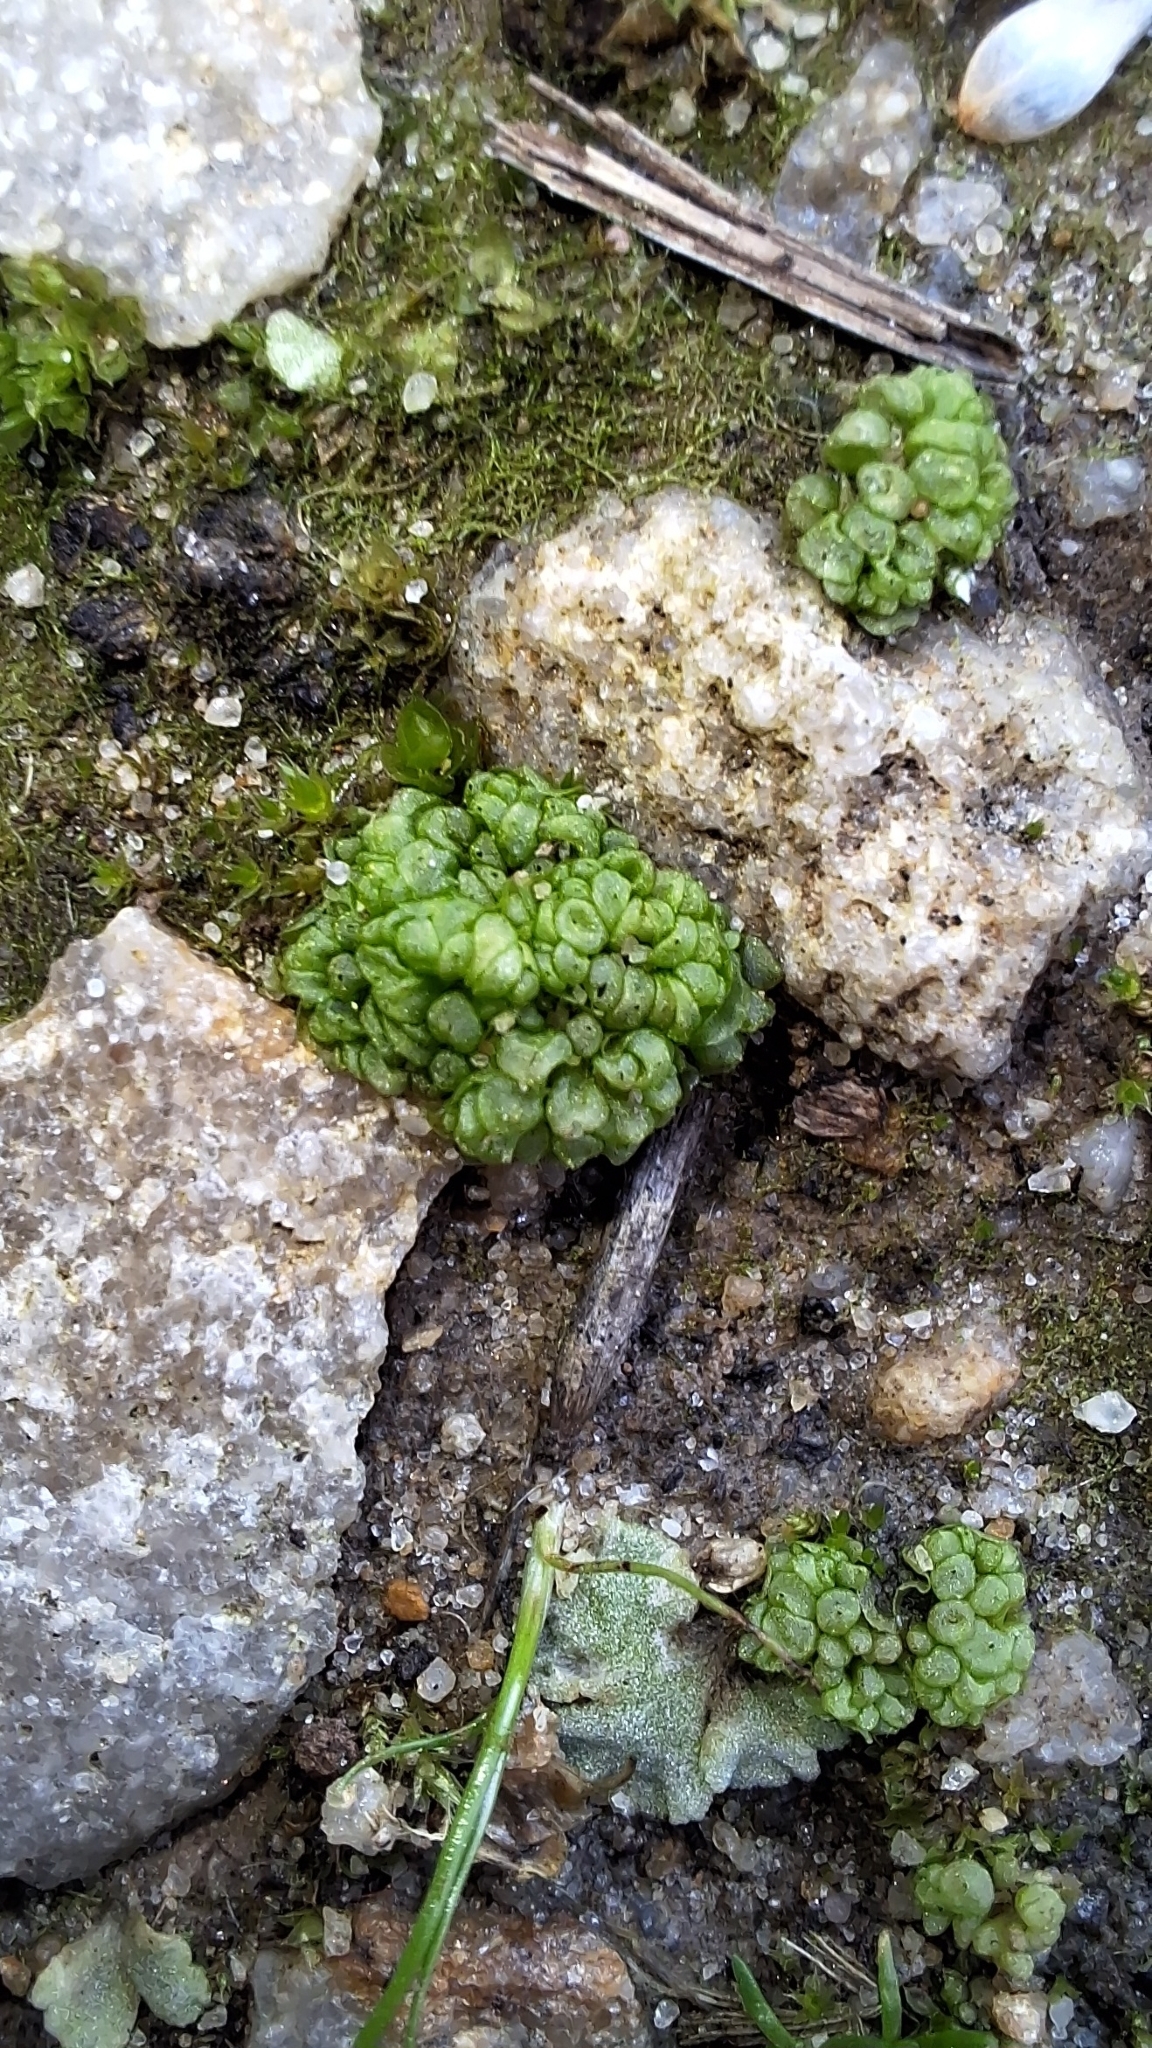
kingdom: Plantae
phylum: Marchantiophyta
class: Marchantiopsida
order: Sphaerocarpales
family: Sphaerocarpaceae
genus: Sphaerocarpos
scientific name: Sphaerocarpos texanus
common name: Texas balloonwort
